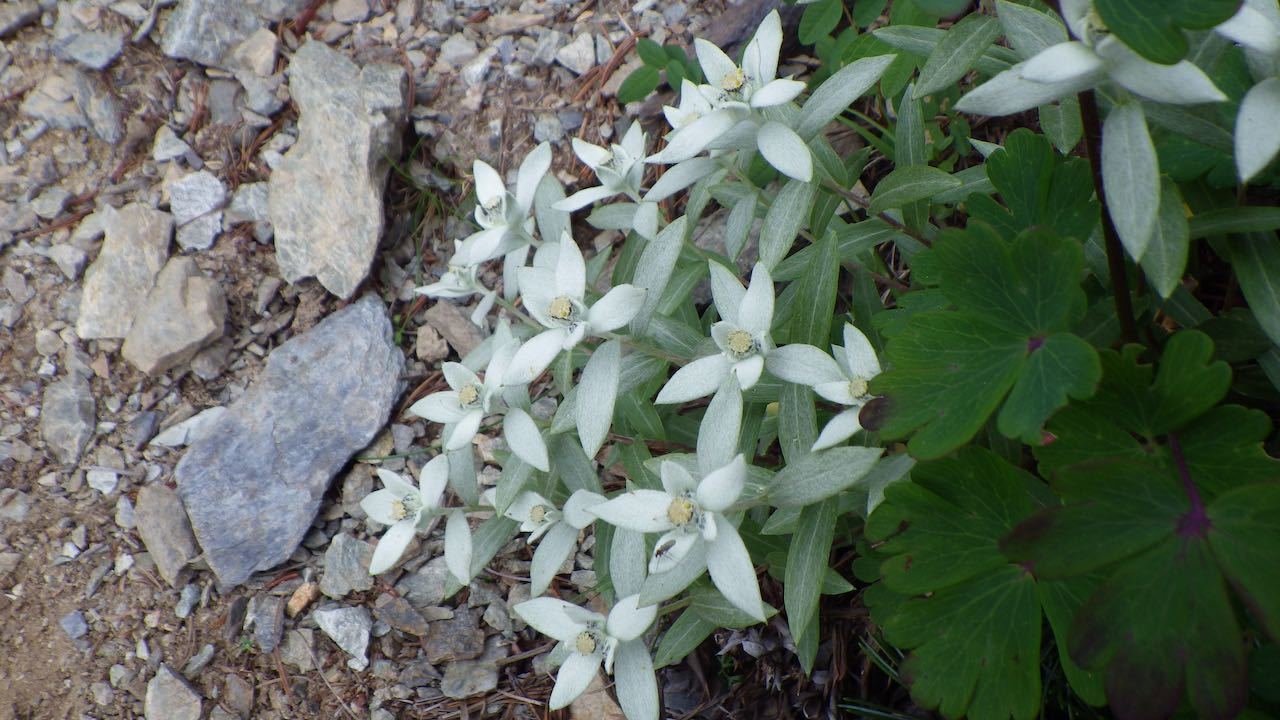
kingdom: Plantae
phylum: Tracheophyta
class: Magnoliopsida
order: Asterales
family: Asteraceae
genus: Leontopodium
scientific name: Leontopodium japonicum
